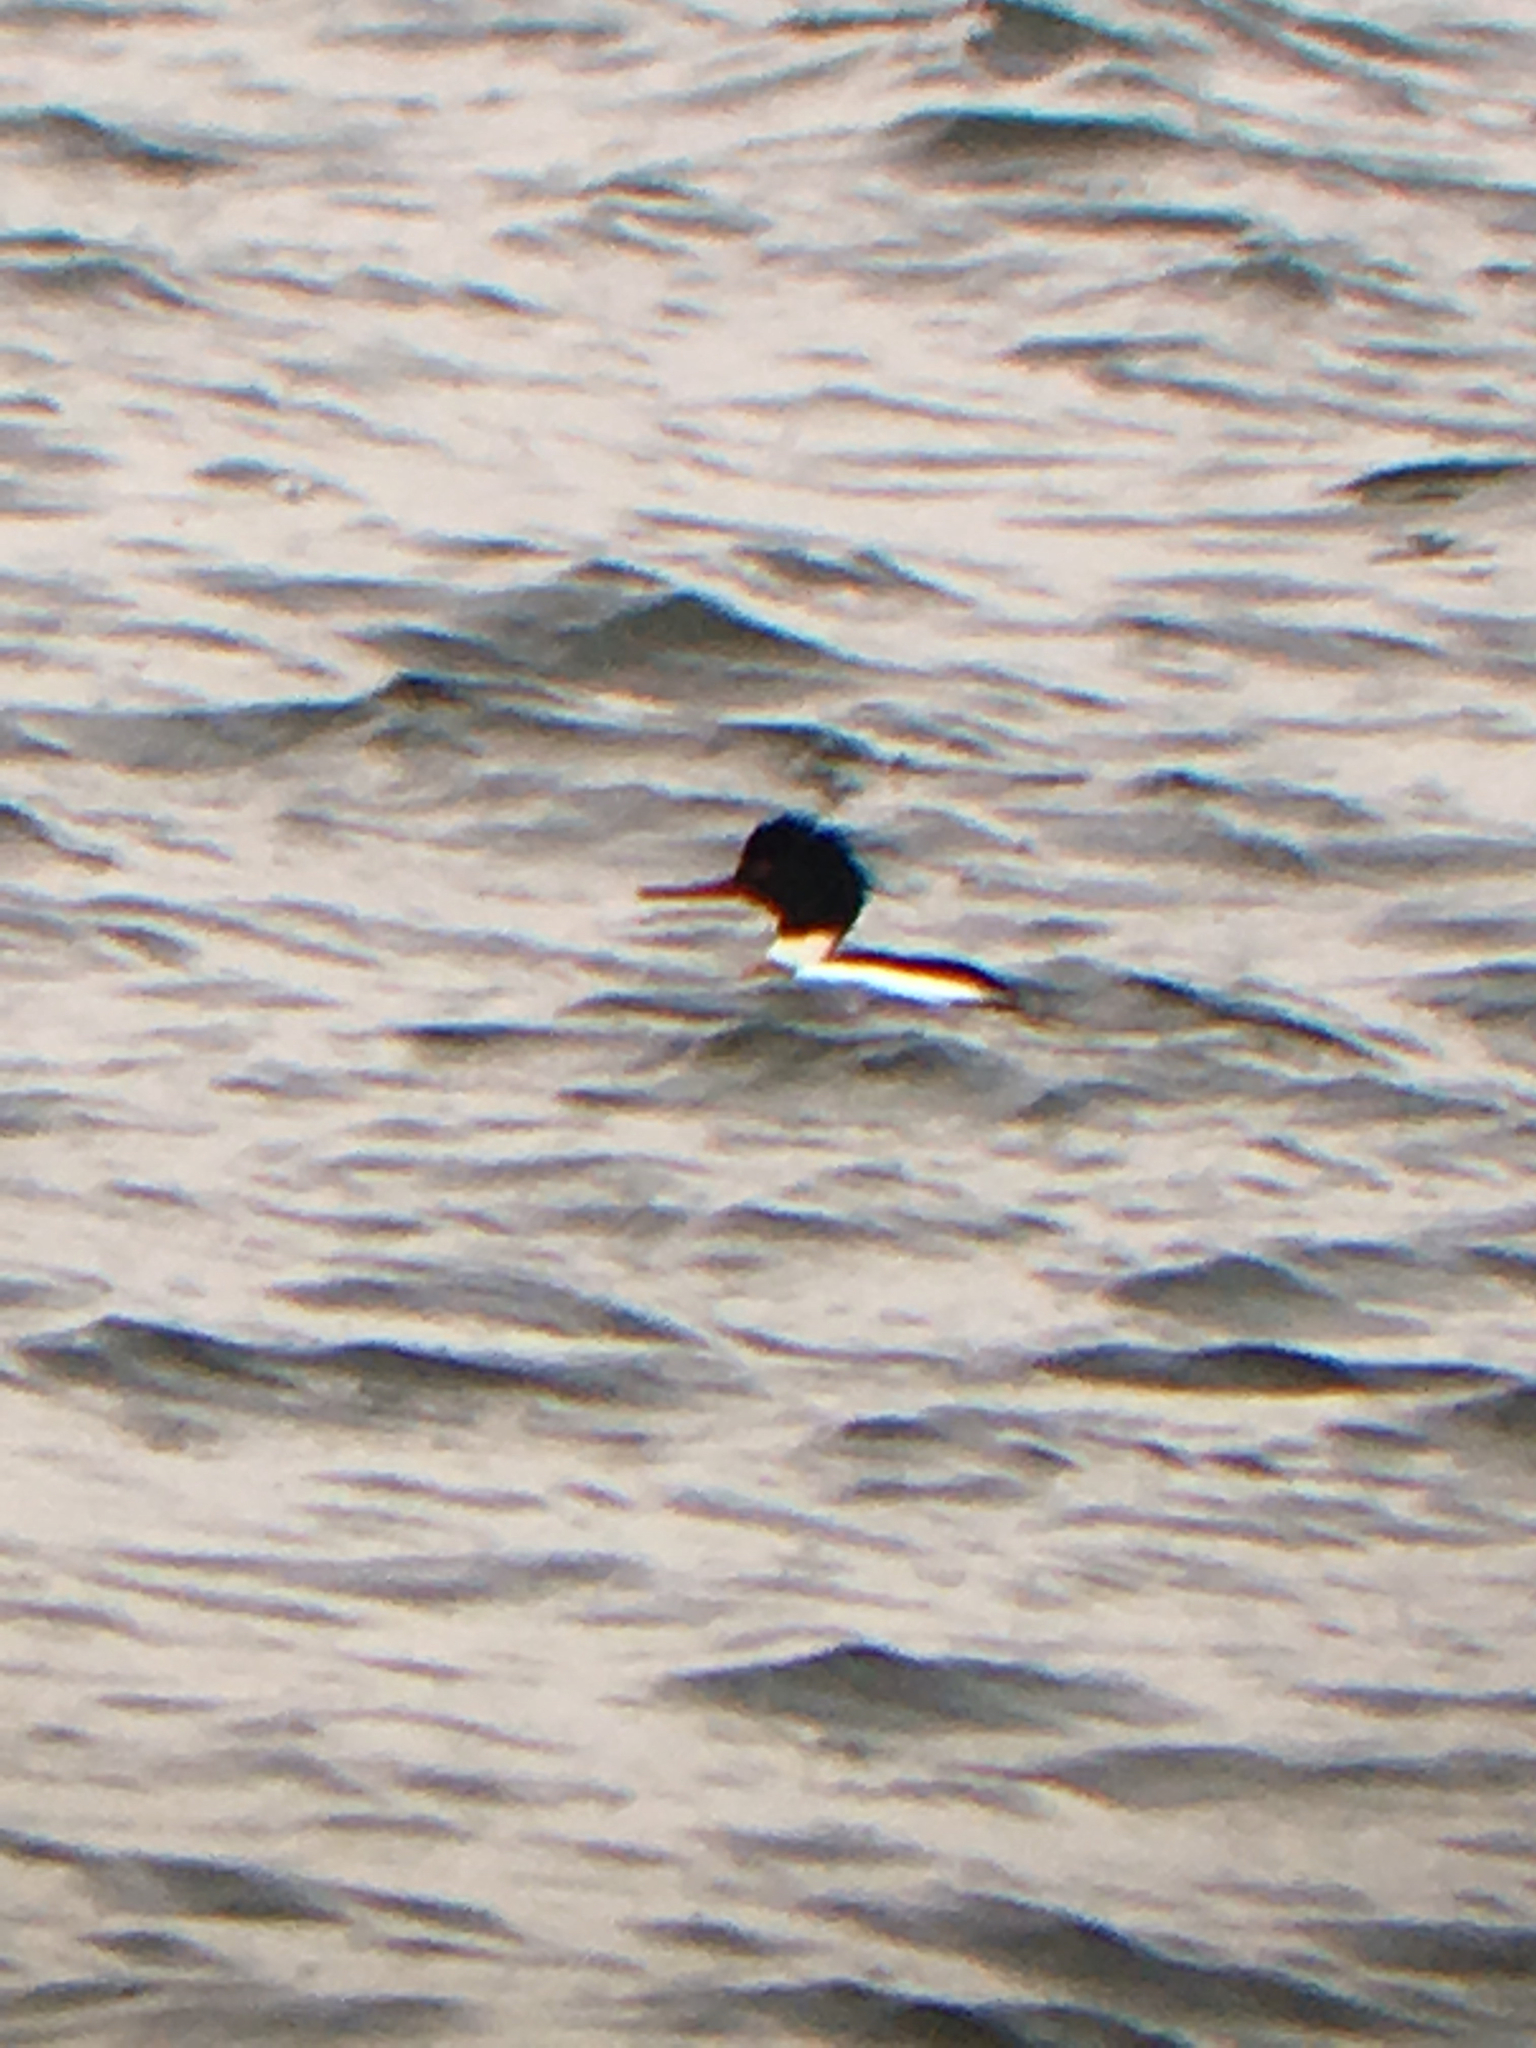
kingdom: Animalia
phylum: Chordata
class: Aves
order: Anseriformes
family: Anatidae
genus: Mergus
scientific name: Mergus serrator
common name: Red-breasted merganser
